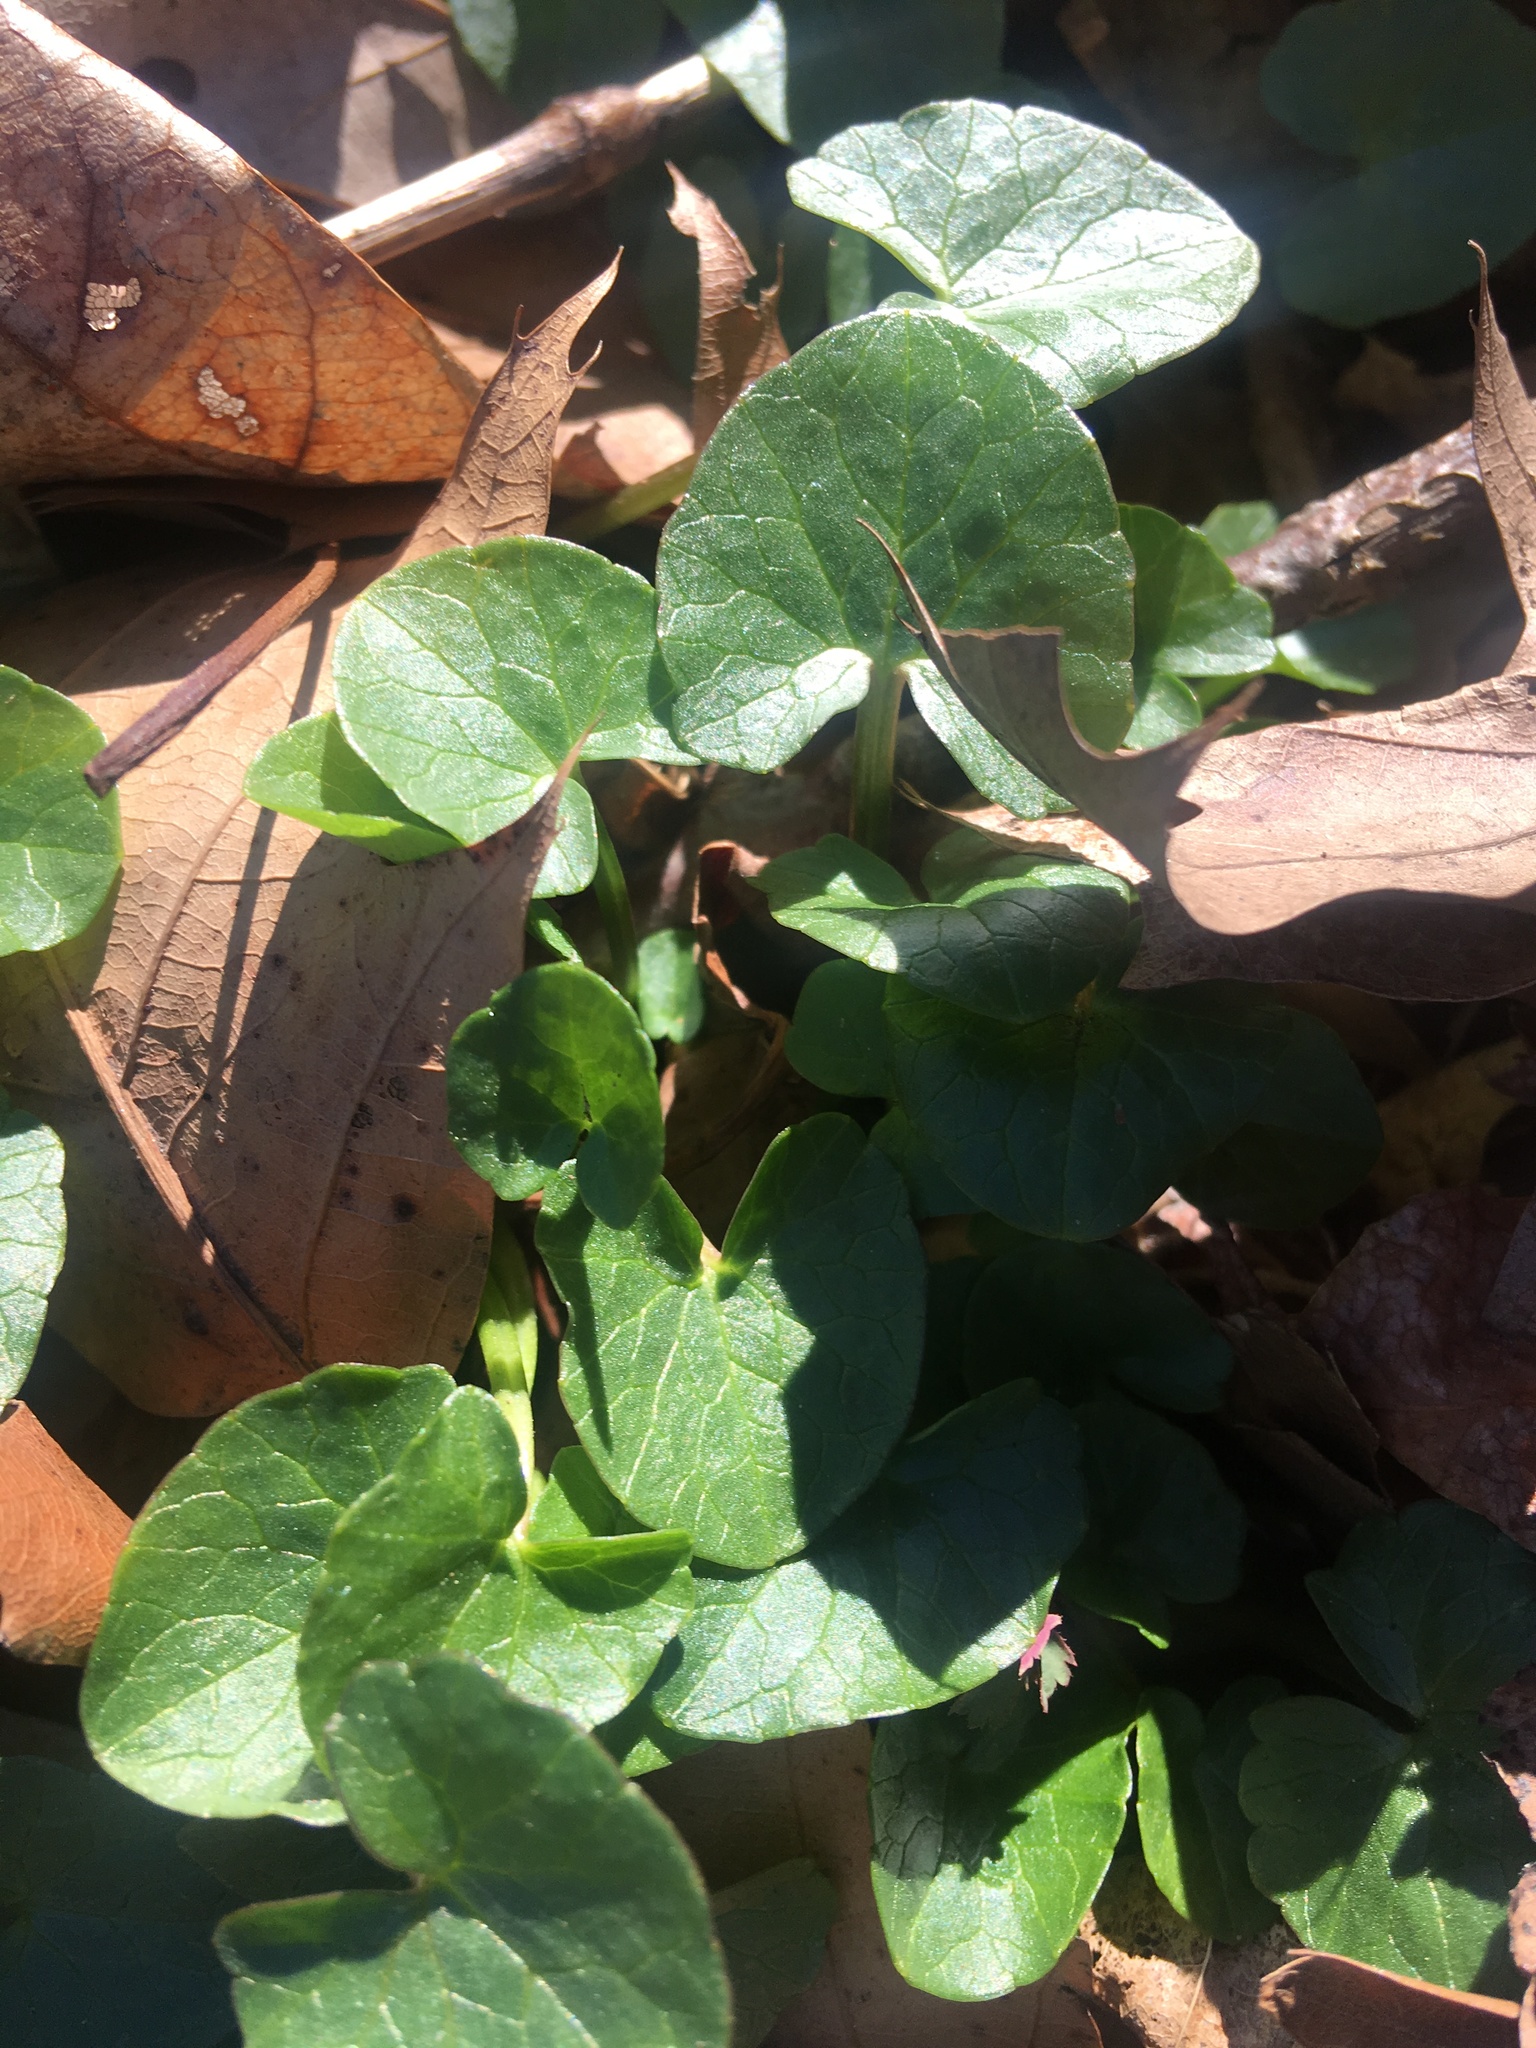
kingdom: Plantae
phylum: Tracheophyta
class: Magnoliopsida
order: Ranunculales
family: Ranunculaceae
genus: Ficaria
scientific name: Ficaria verna
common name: Lesser celandine
